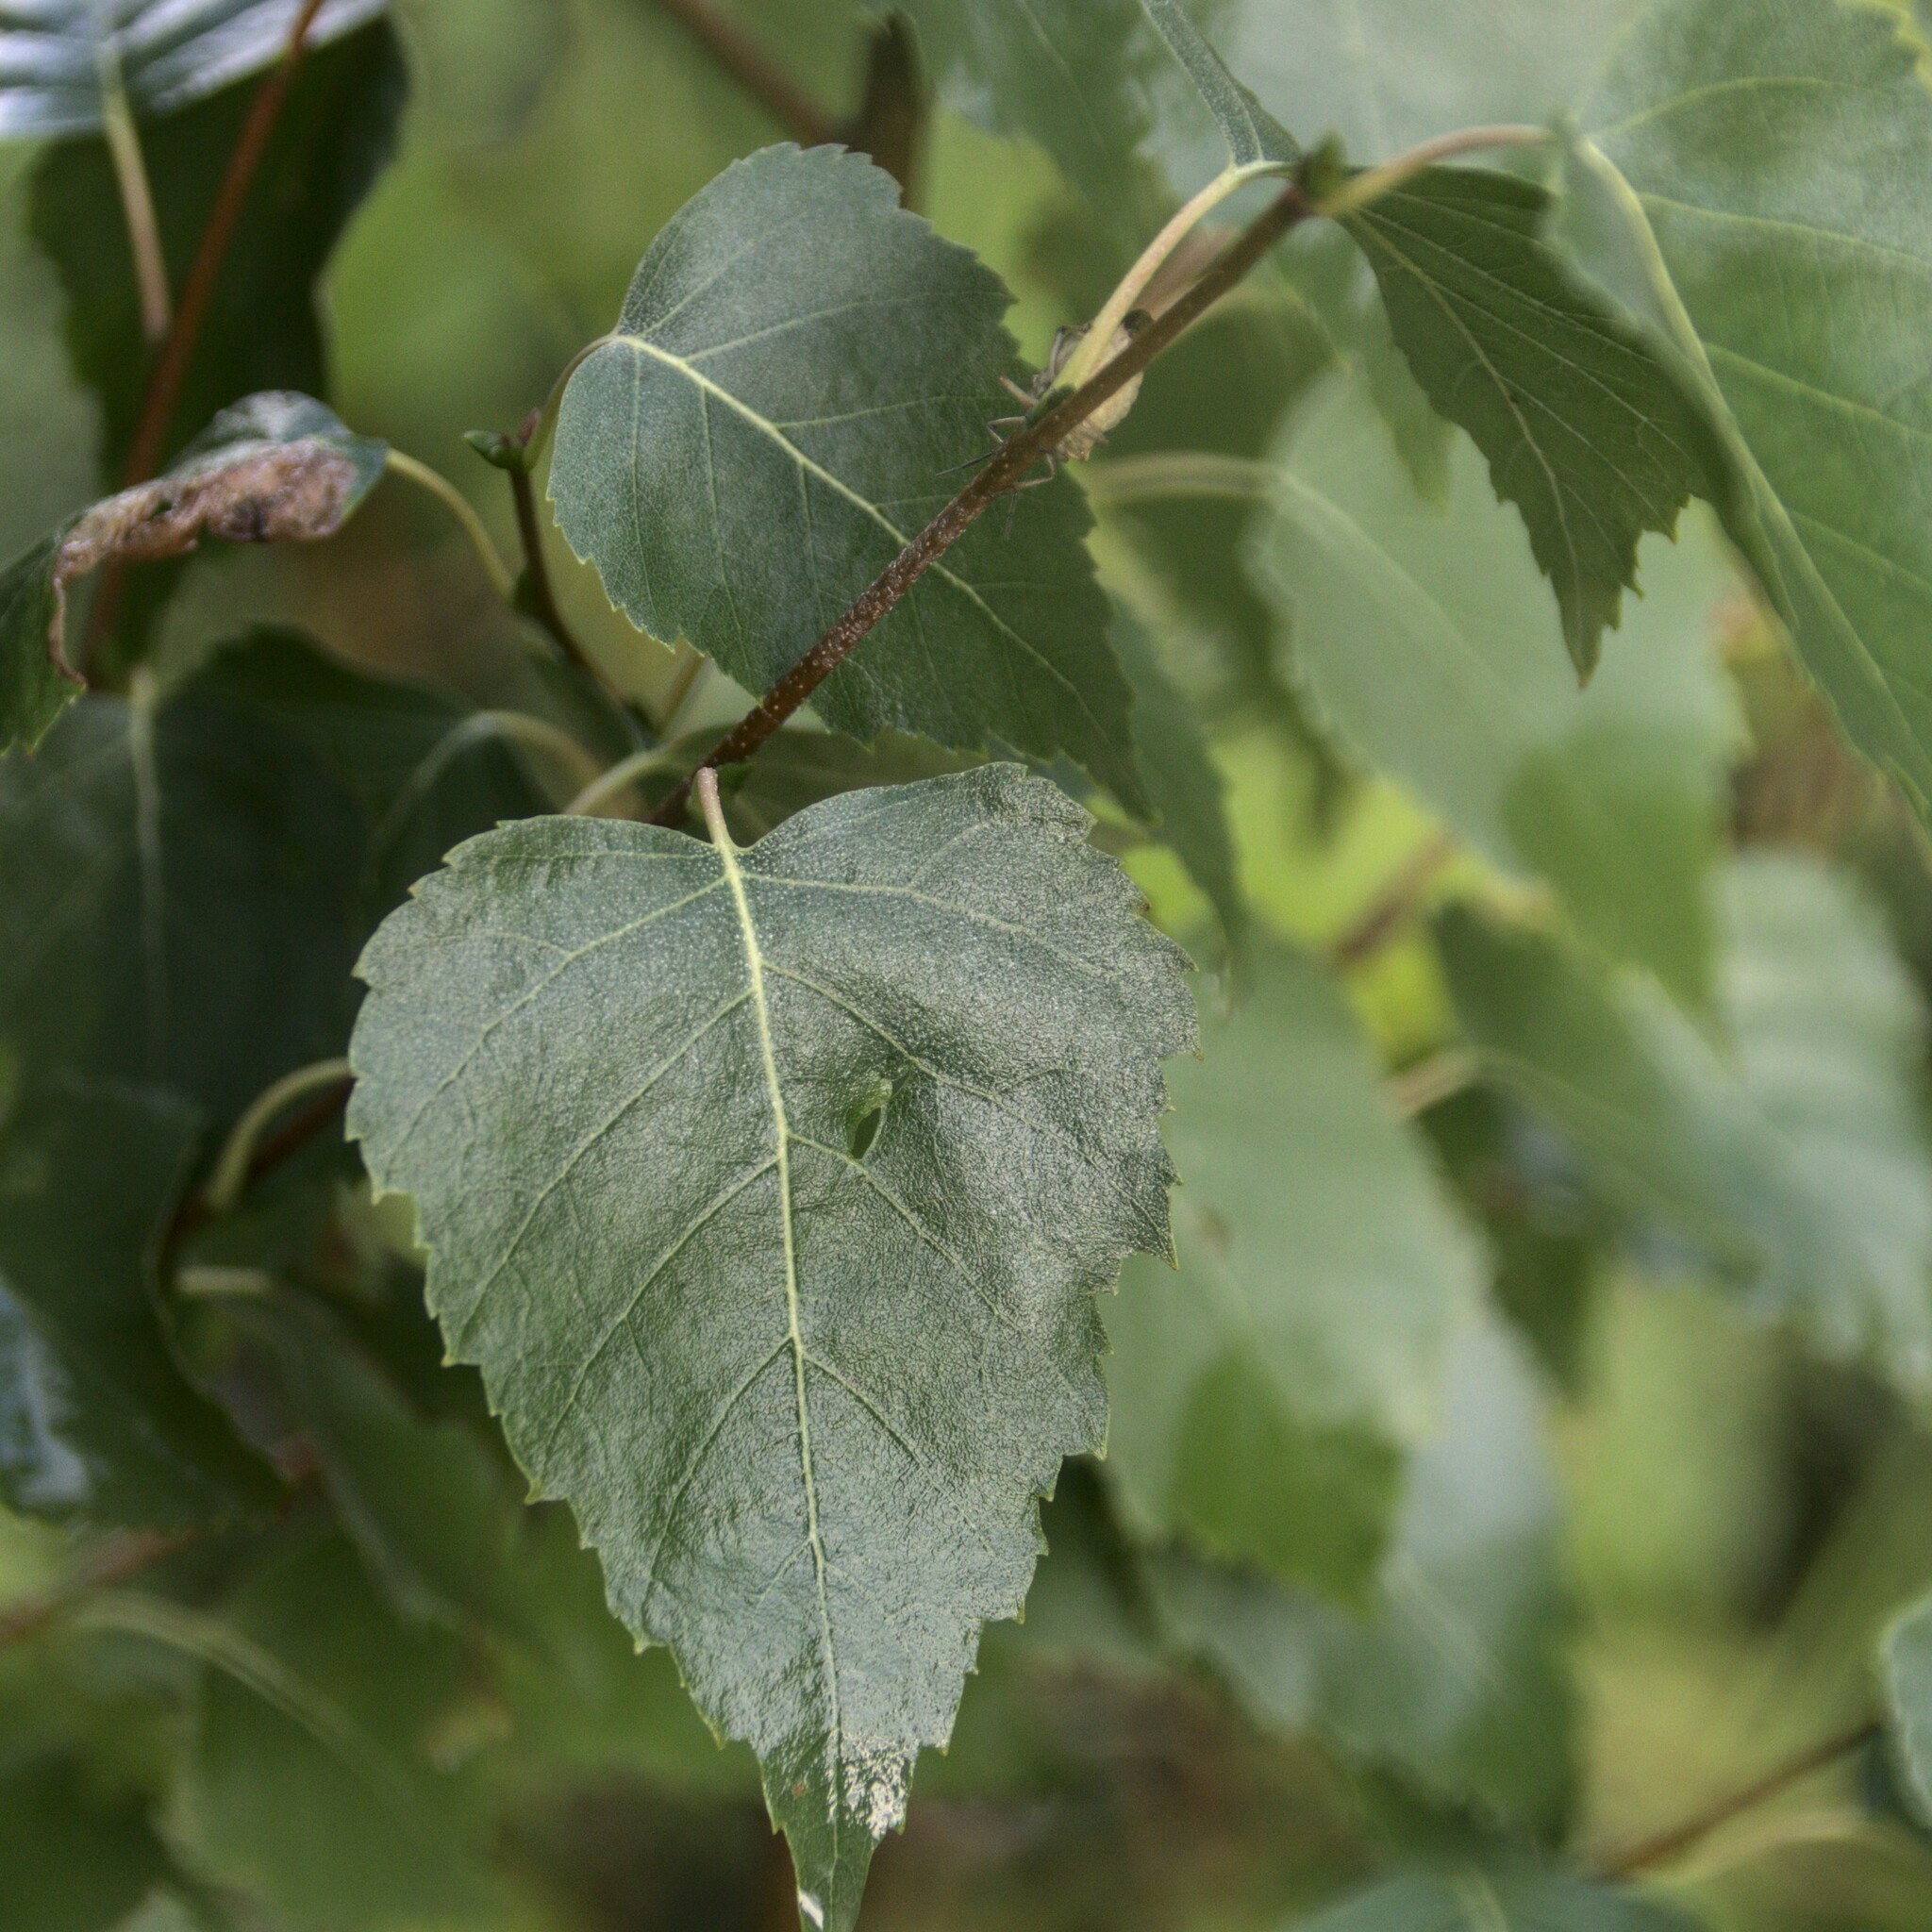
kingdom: Plantae
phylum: Tracheophyta
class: Magnoliopsida
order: Fagales
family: Betulaceae
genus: Betula
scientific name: Betula pendula
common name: Silver birch
